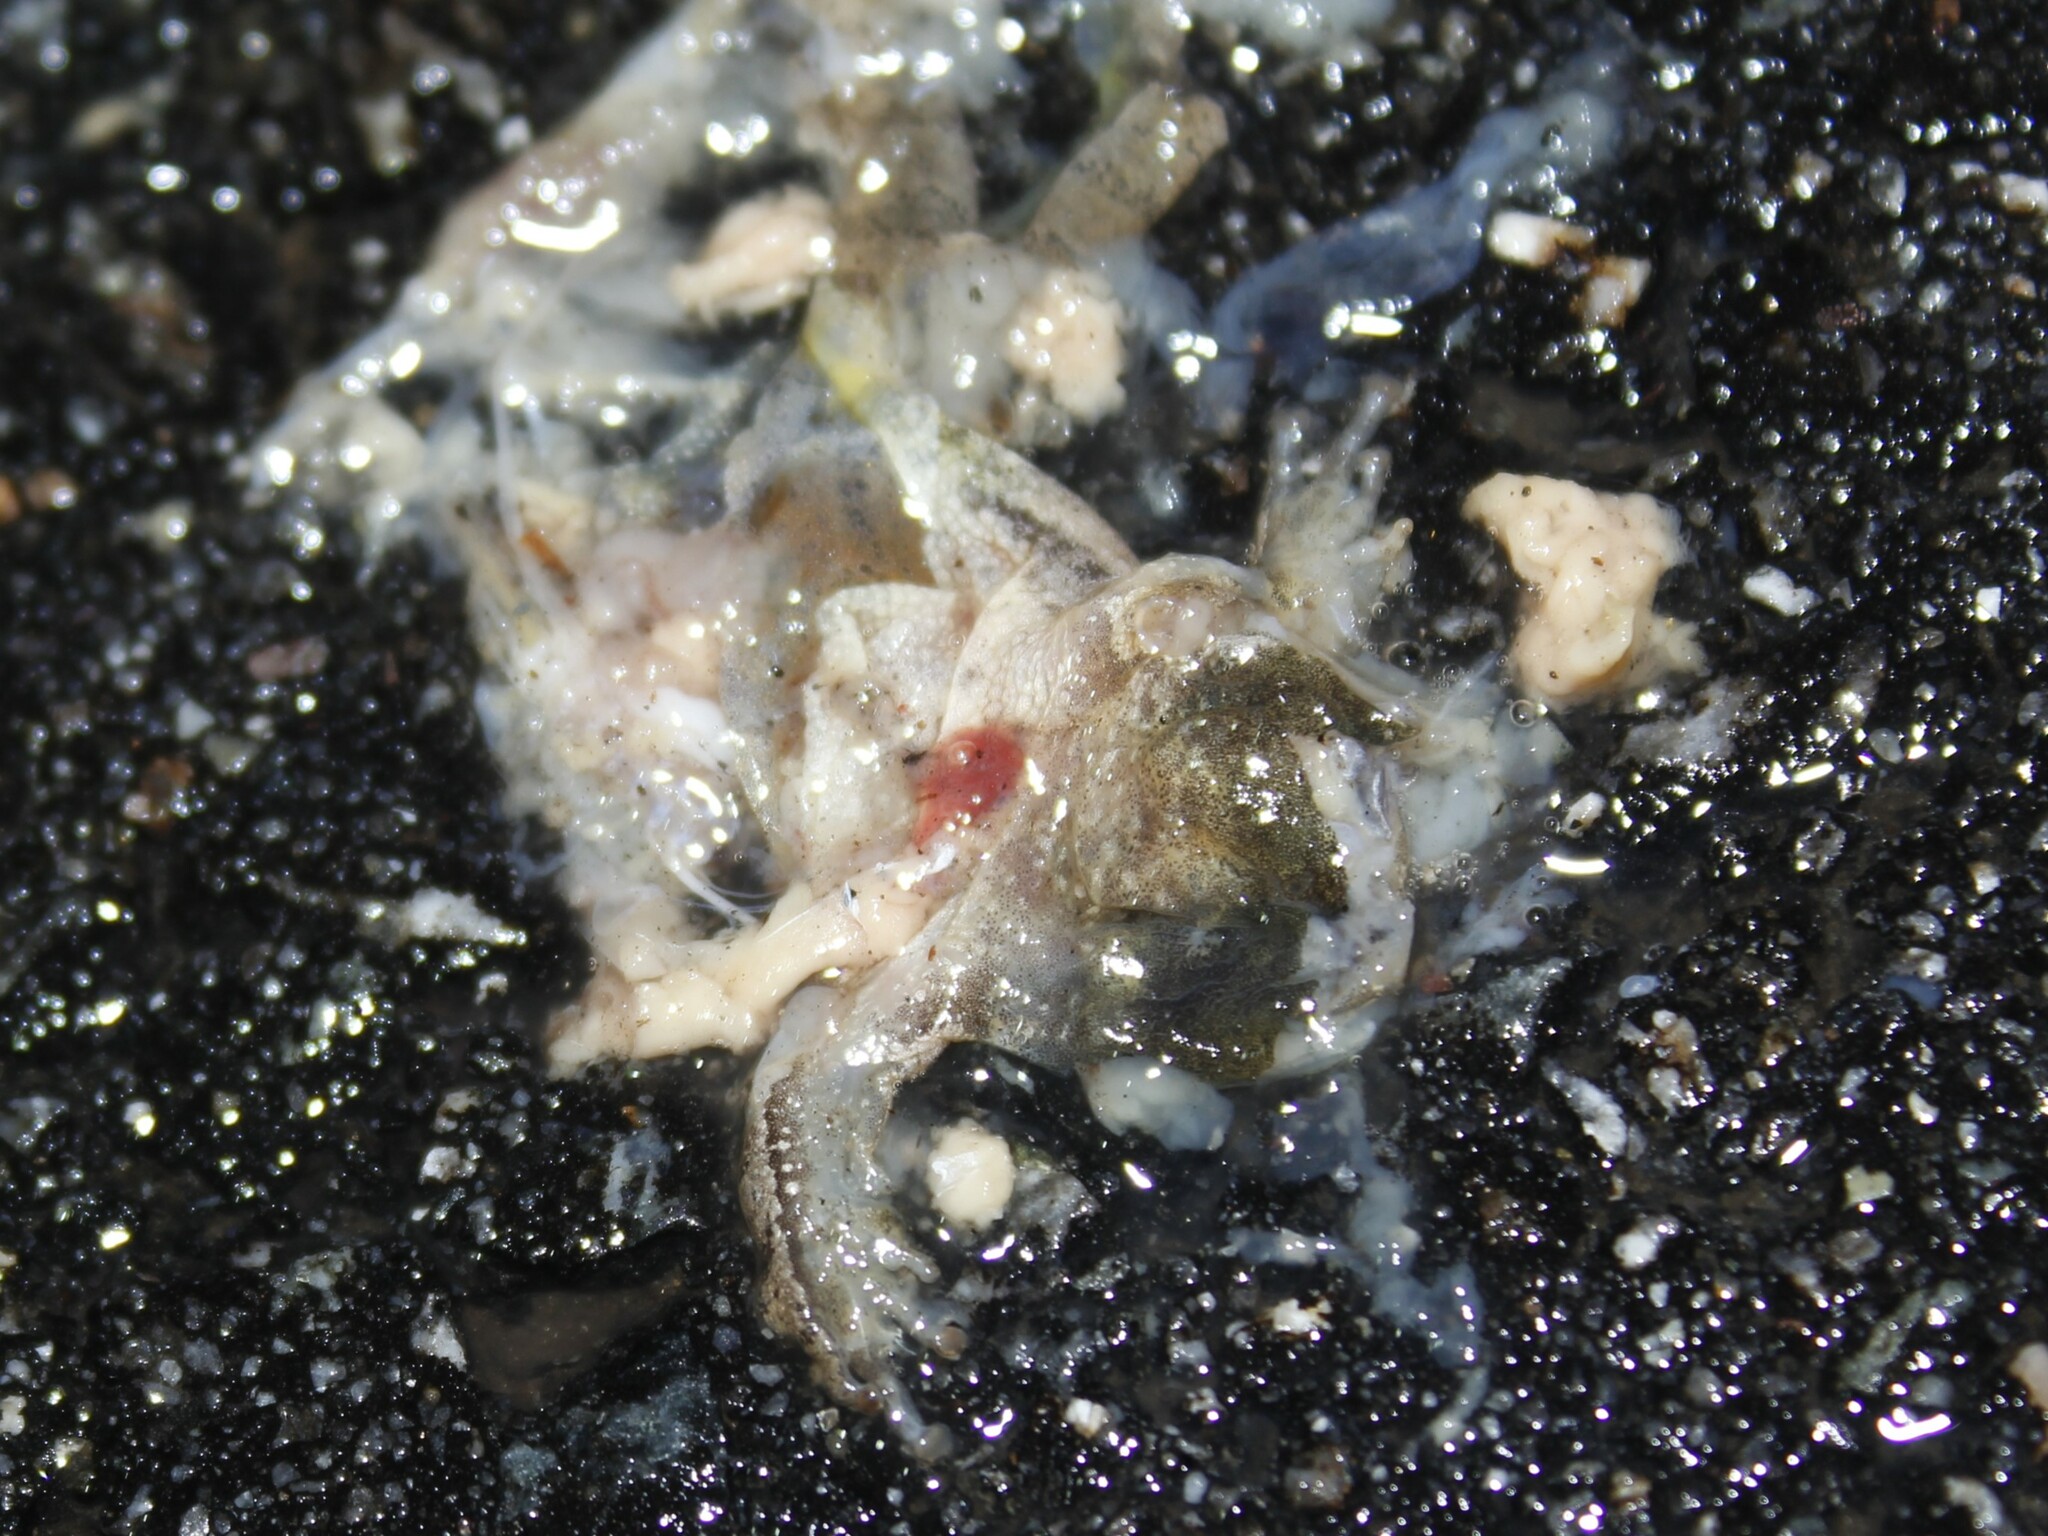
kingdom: Animalia
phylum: Chordata
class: Amphibia
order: Anura
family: Hylidae
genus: Pseudacris
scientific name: Pseudacris crucifer
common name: Spring peeper
